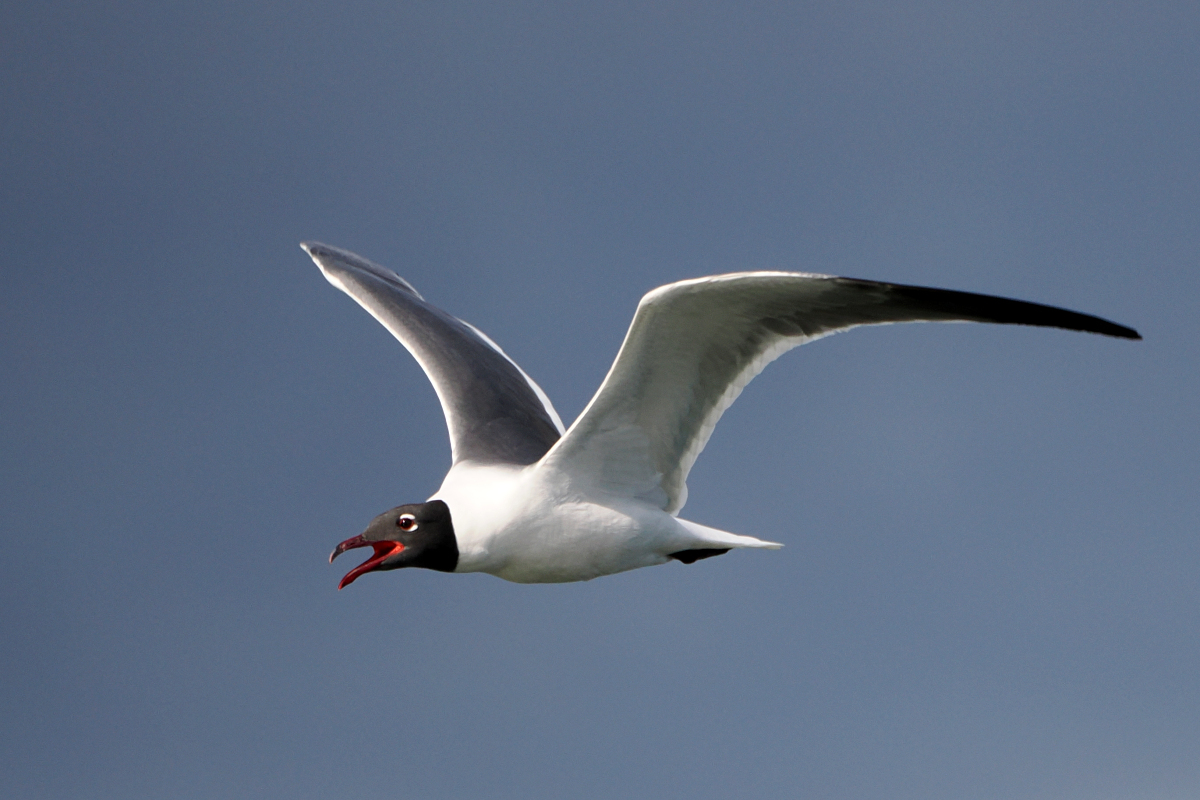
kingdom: Animalia
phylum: Chordata
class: Aves
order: Charadriiformes
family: Laridae
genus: Leucophaeus
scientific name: Leucophaeus atricilla
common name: Laughing gull
